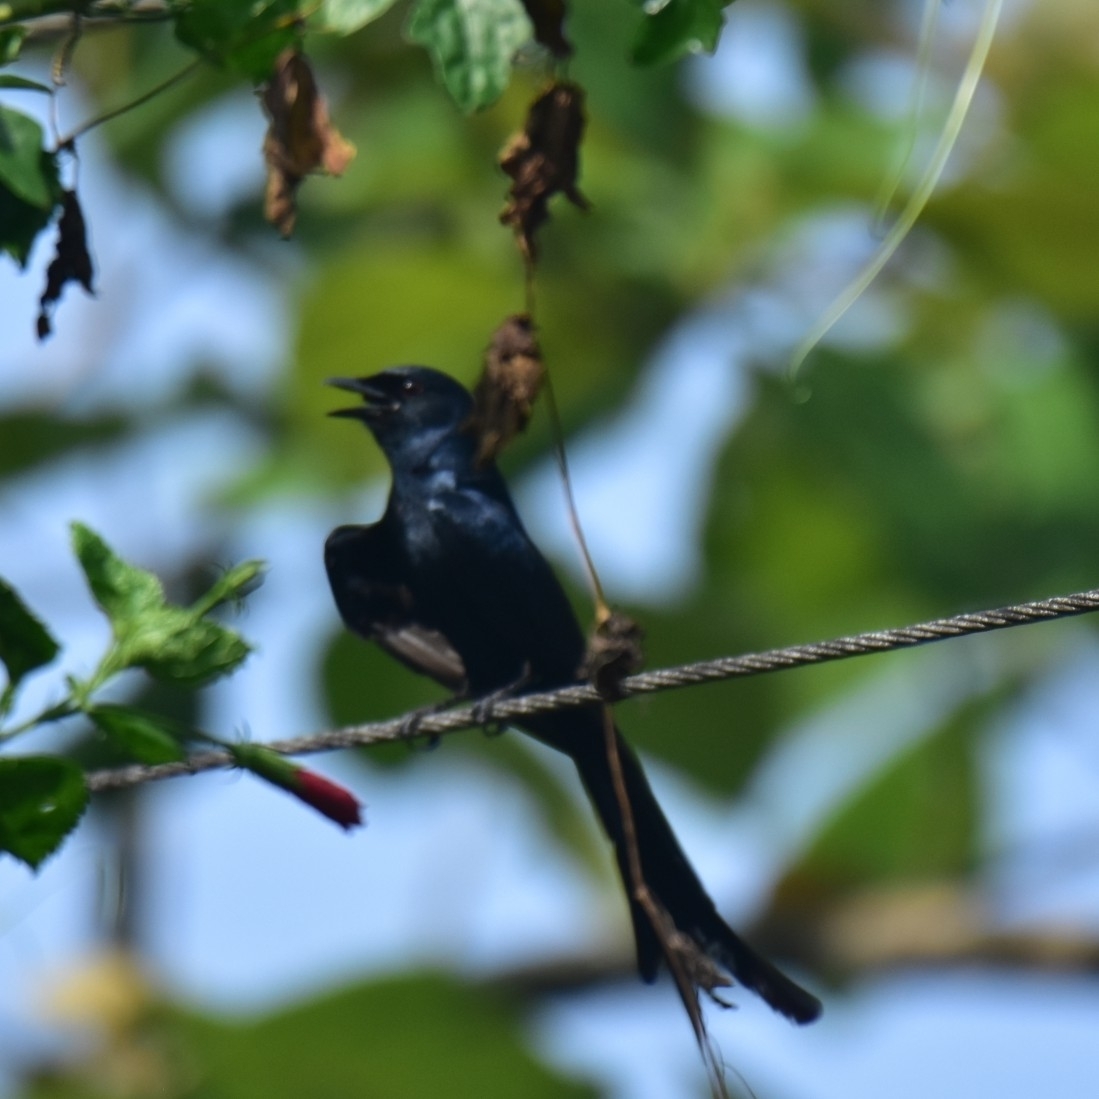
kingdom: Animalia
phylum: Chordata
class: Aves
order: Passeriformes
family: Dicruridae
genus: Dicrurus
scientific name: Dicrurus macrocercus
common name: Black drongo
